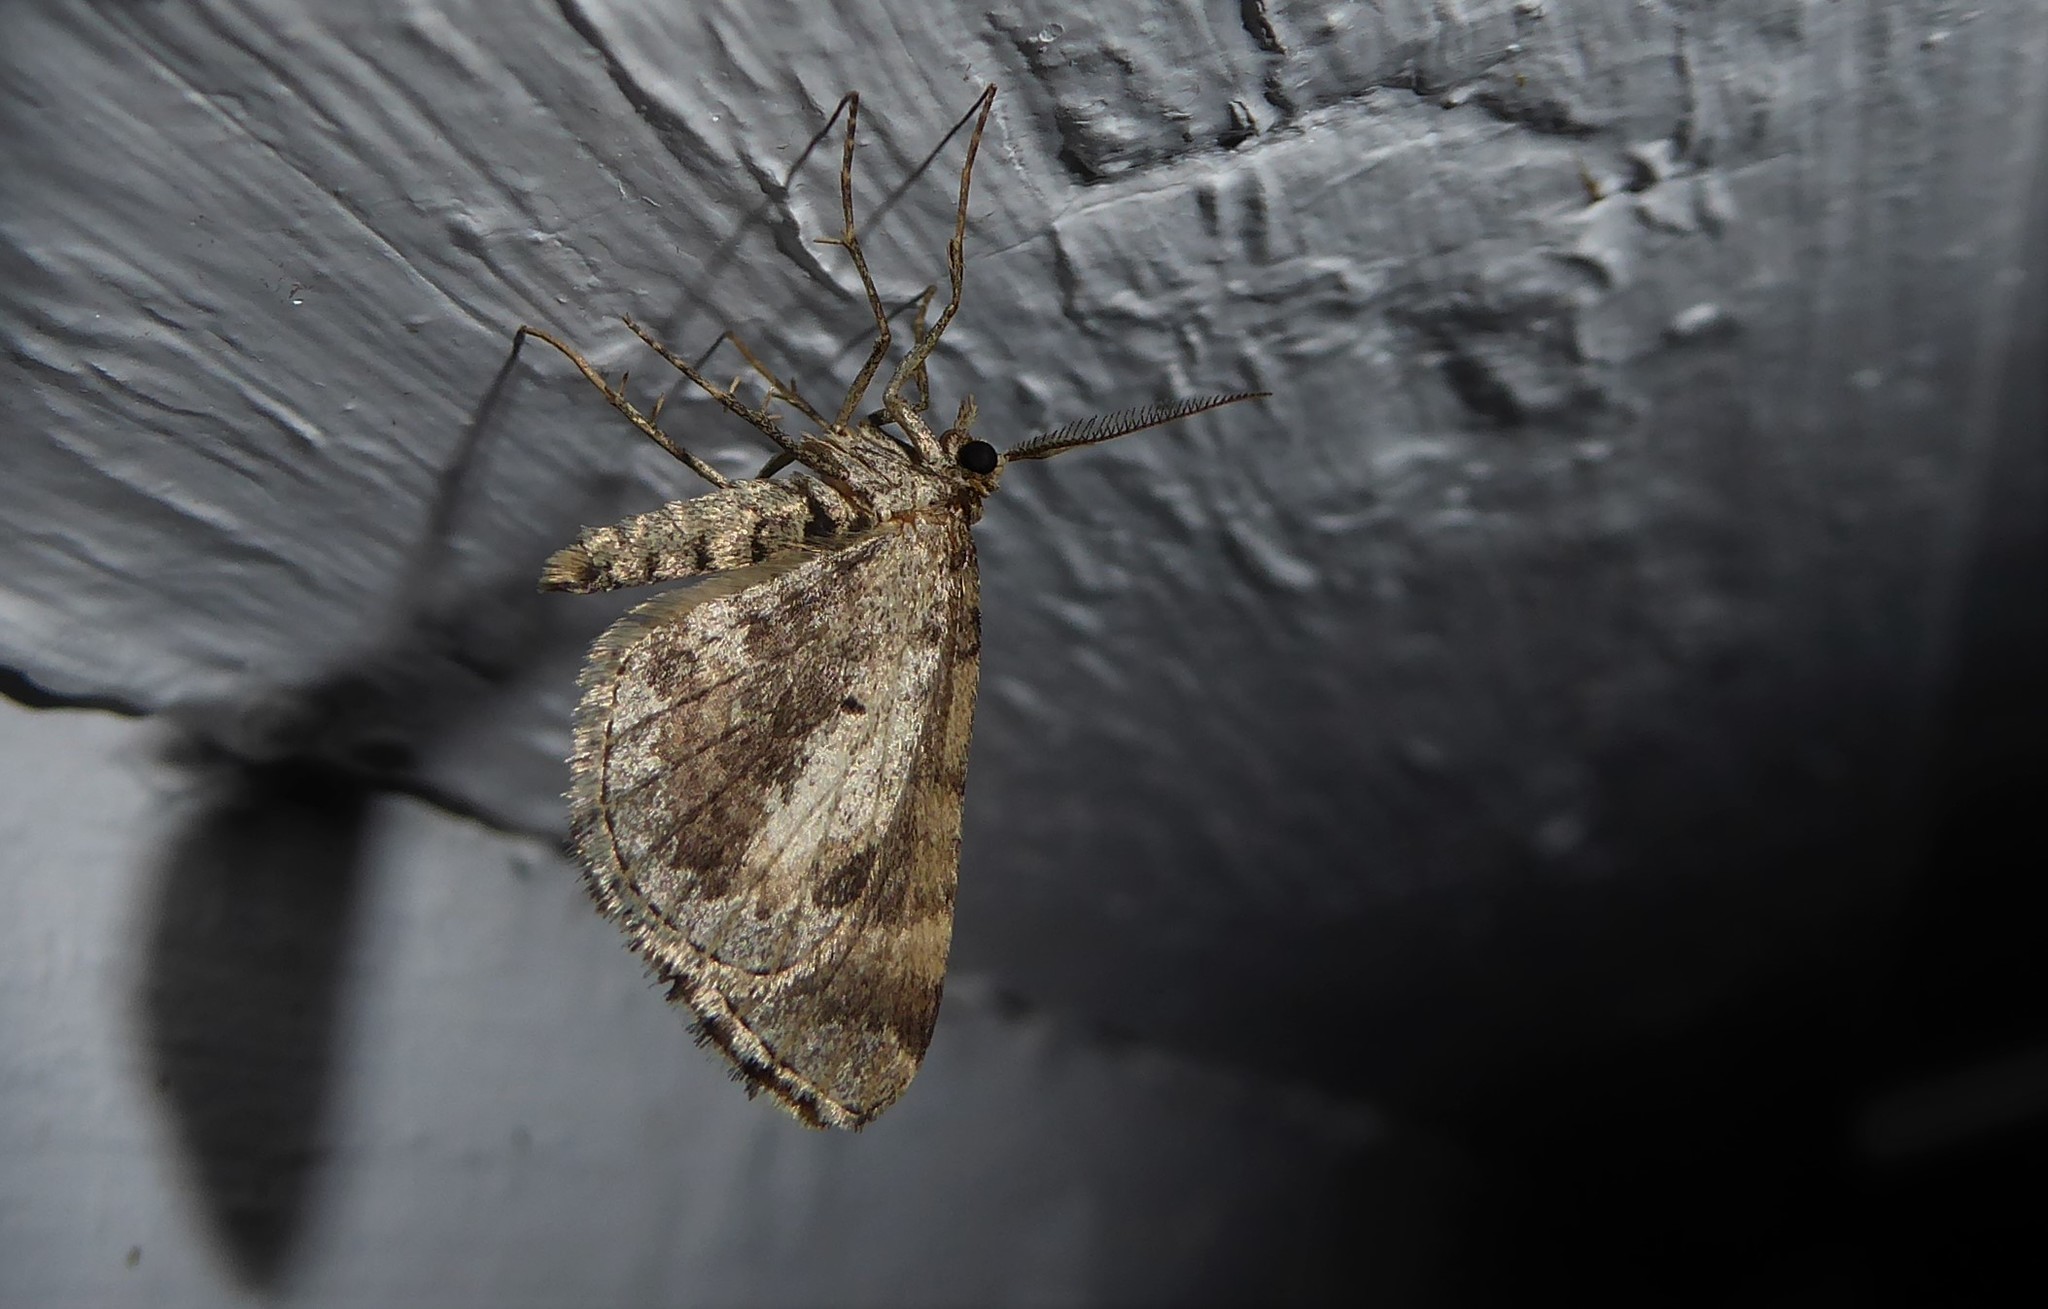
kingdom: Animalia
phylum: Arthropoda
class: Insecta
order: Lepidoptera
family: Geometridae
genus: Asaphodes
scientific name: Asaphodes aegrota
